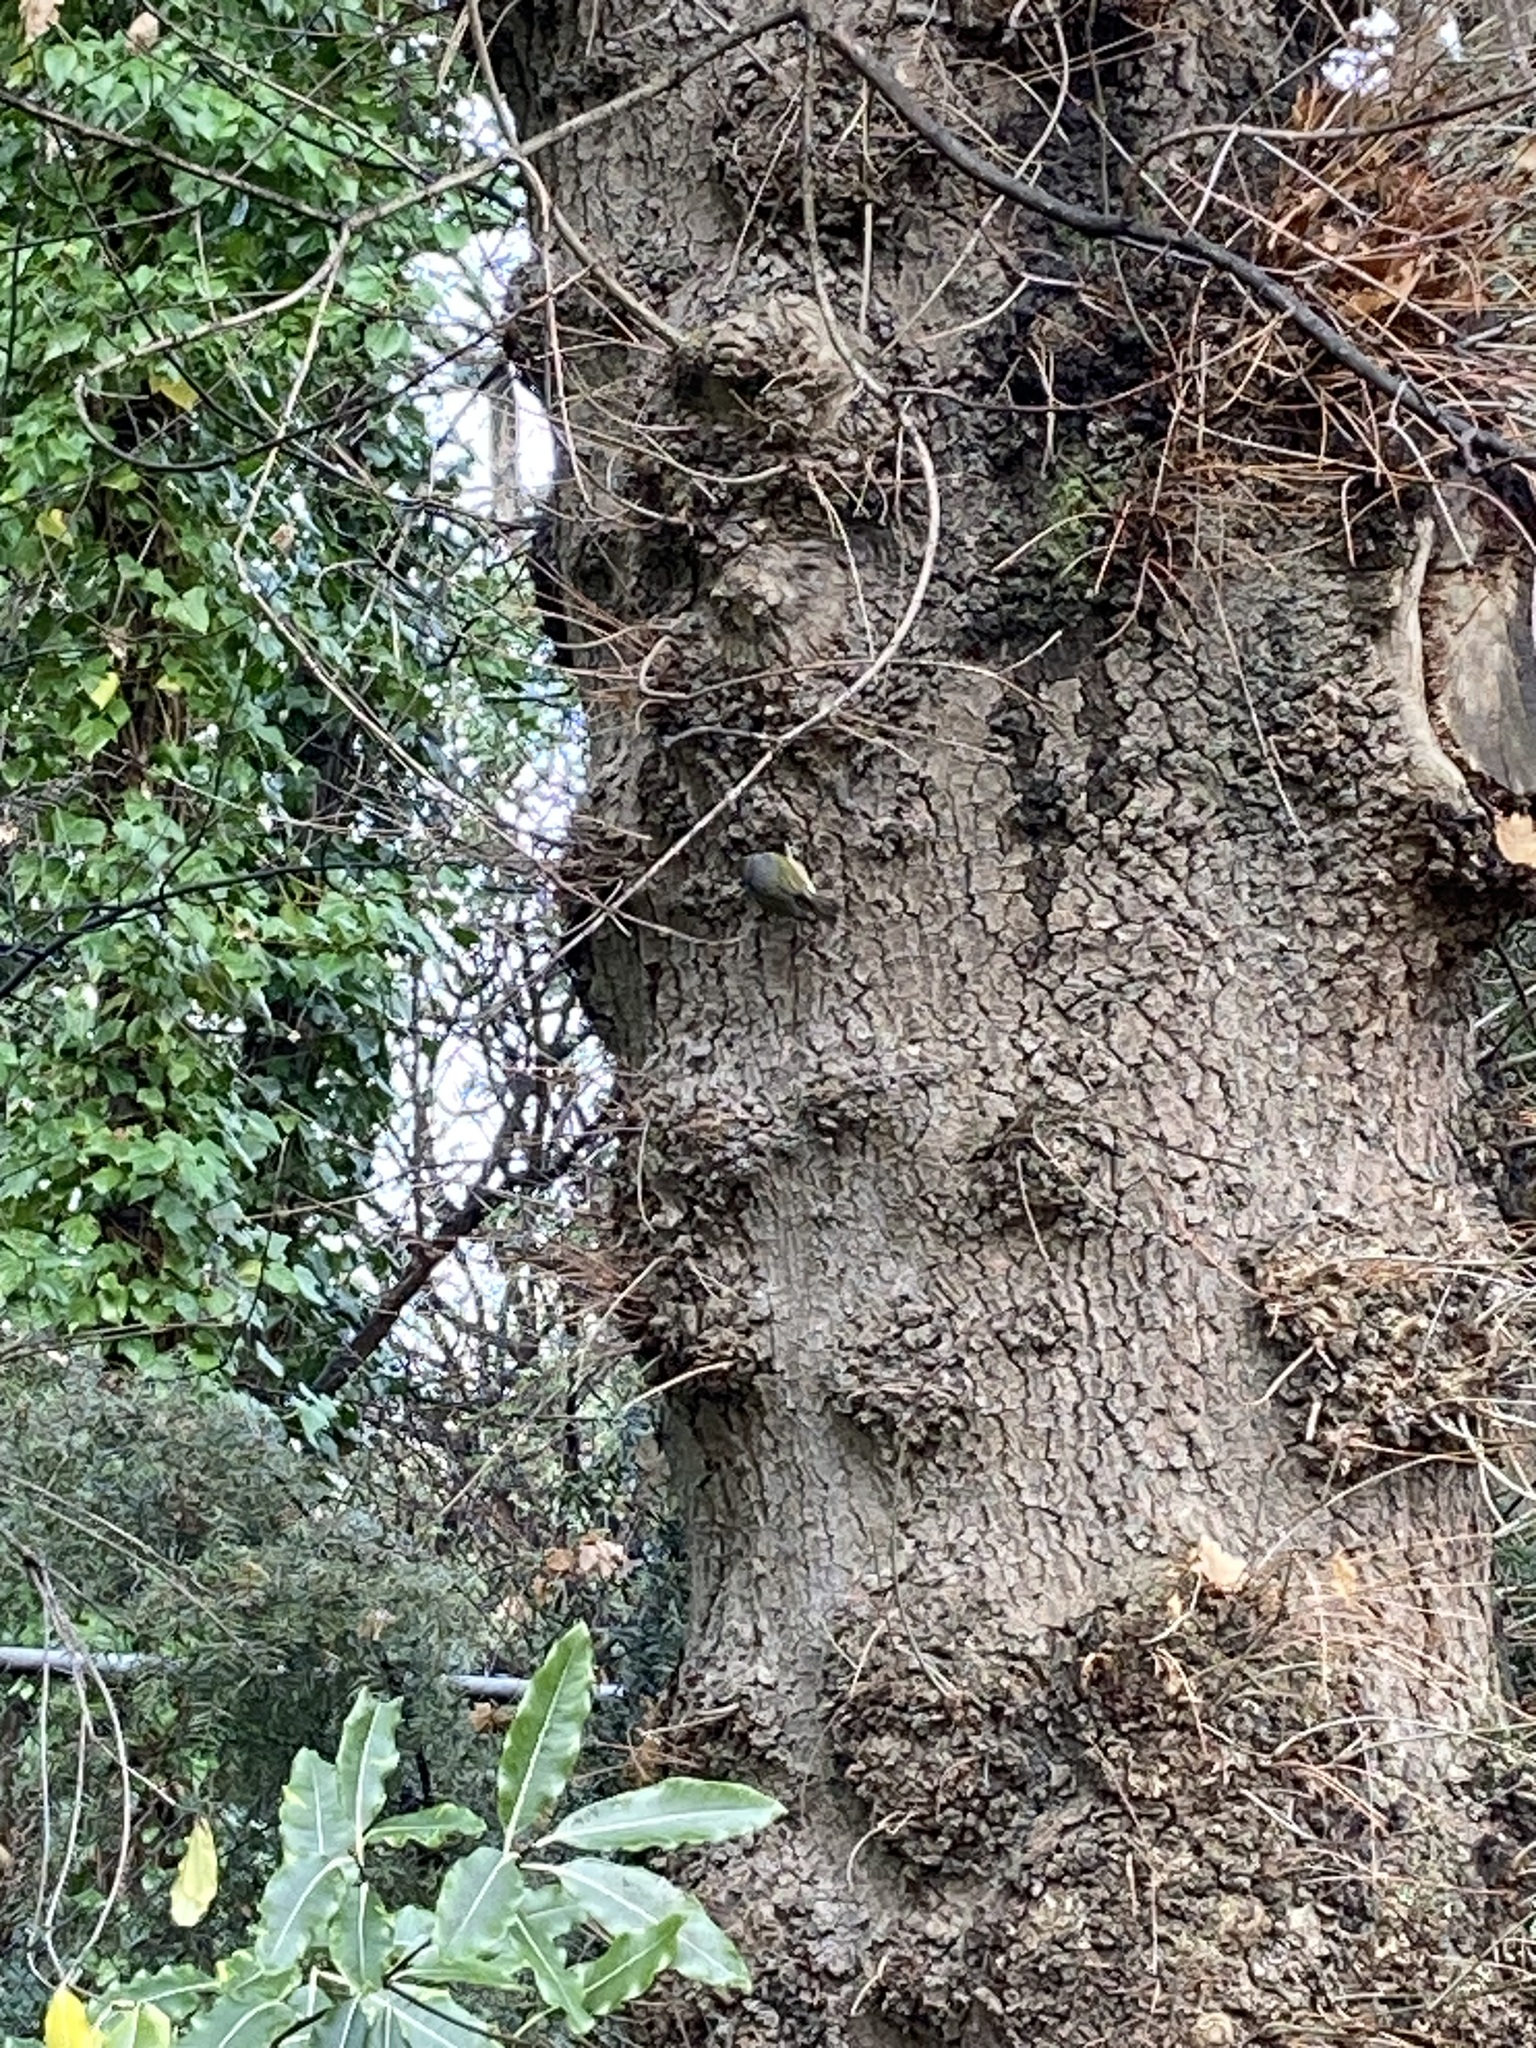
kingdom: Animalia
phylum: Chordata
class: Aves
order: Passeriformes
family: Zosteropidae
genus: Zosterops
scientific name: Zosterops lateralis
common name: Silvereye
